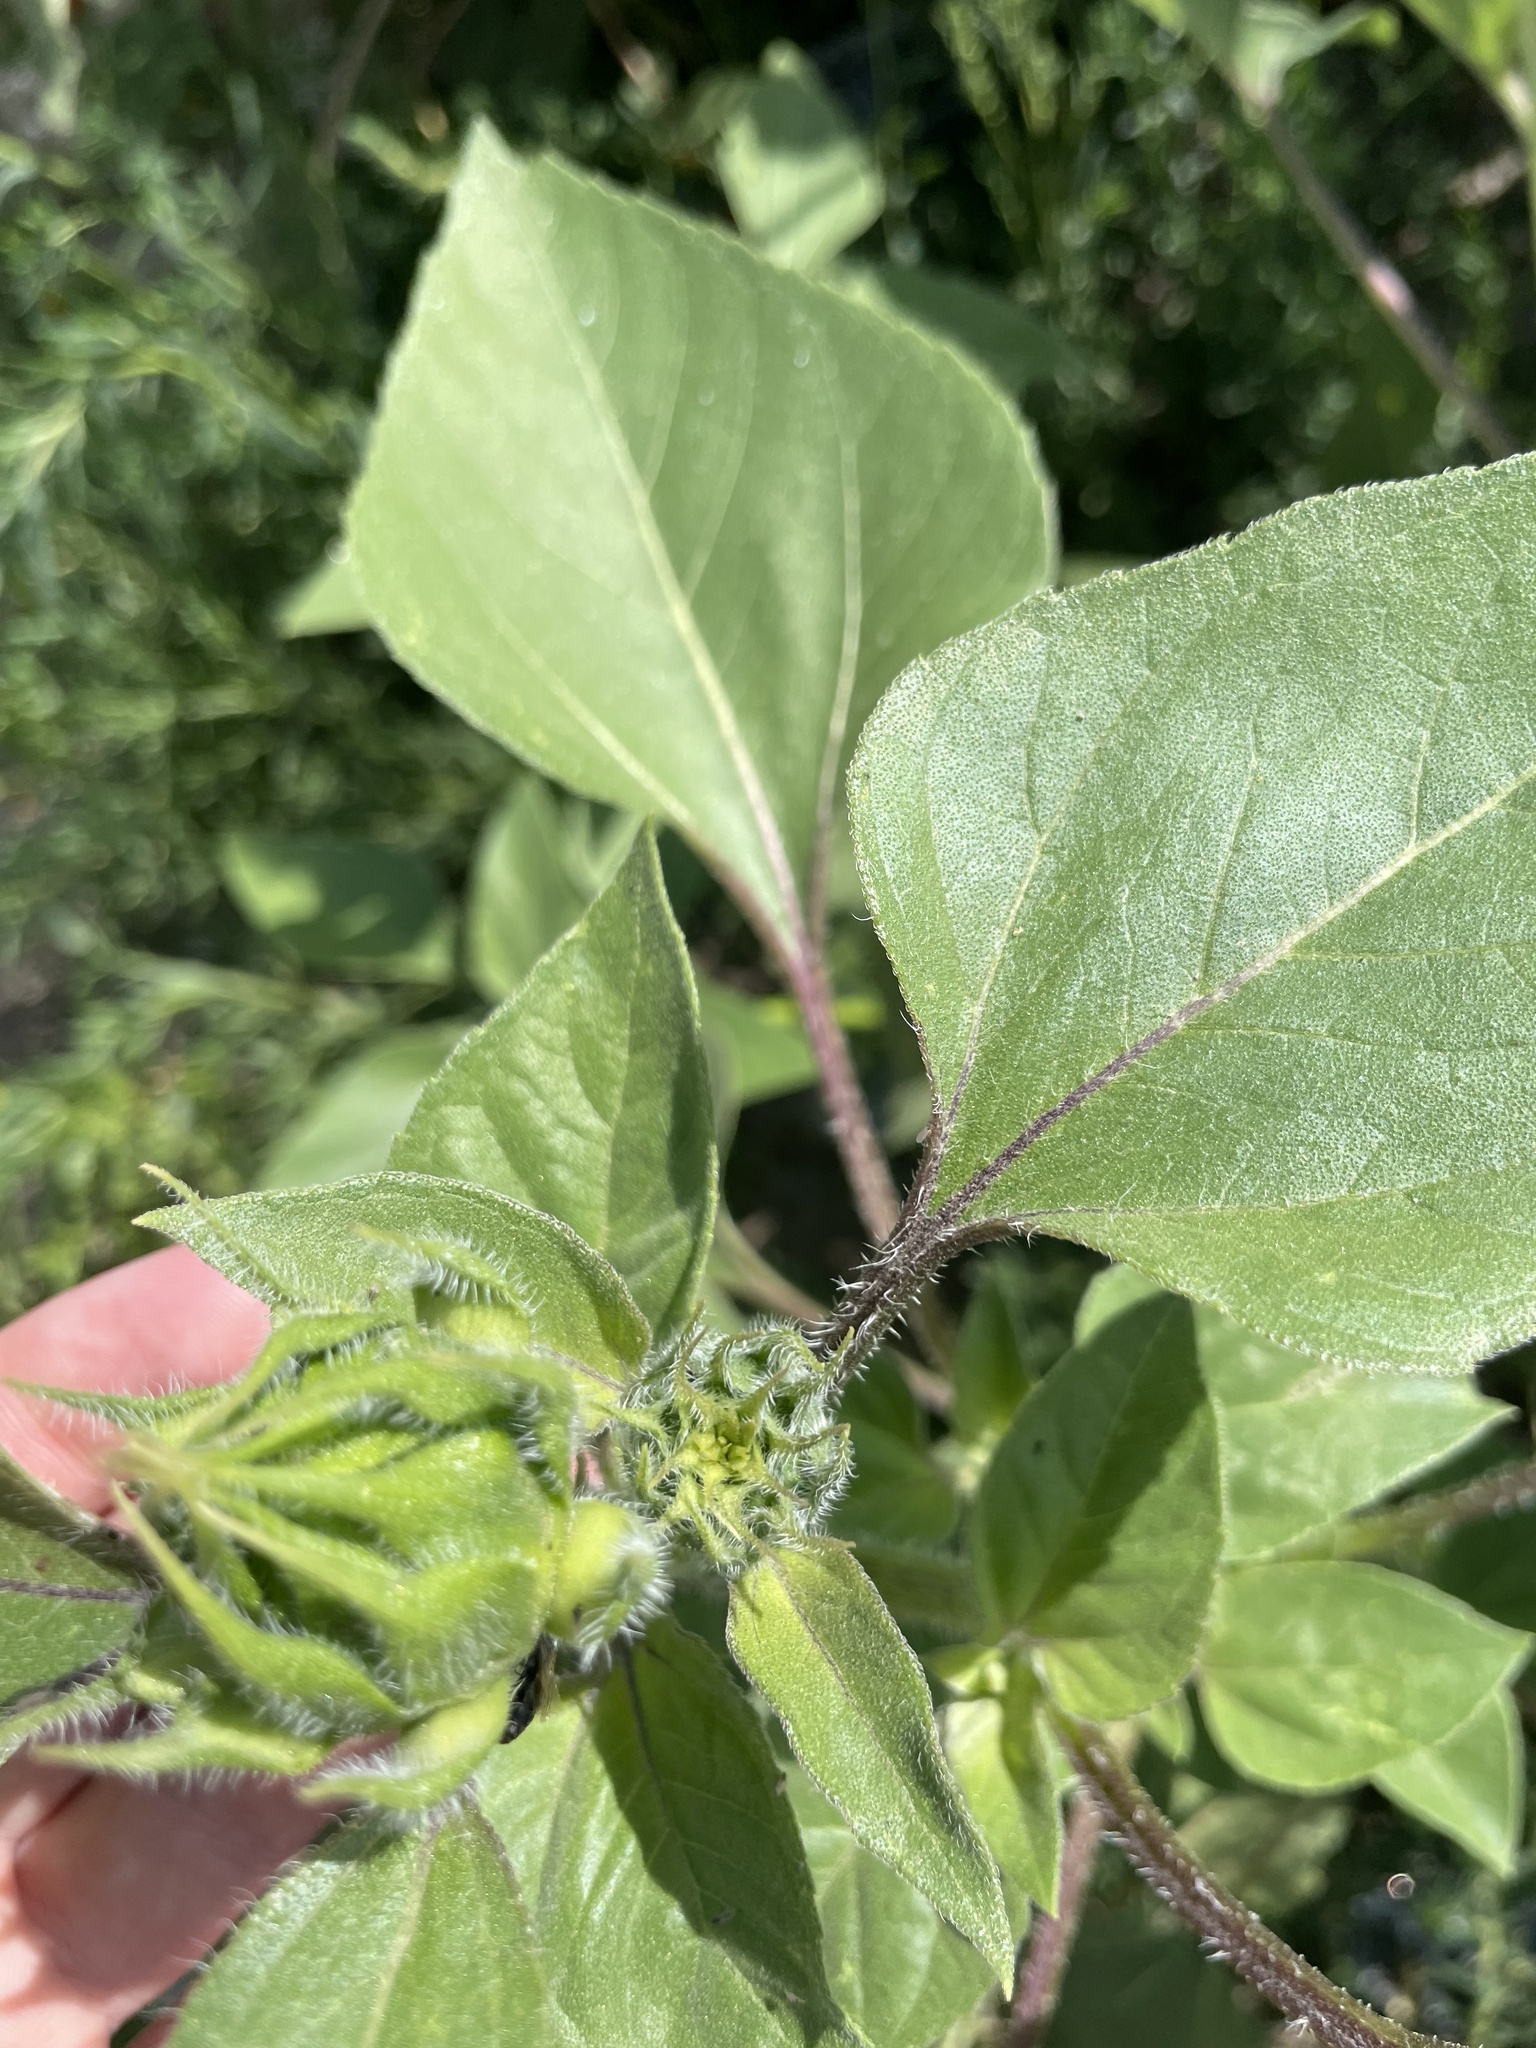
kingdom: Plantae
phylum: Tracheophyta
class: Magnoliopsida
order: Asterales
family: Asteraceae
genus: Helianthus
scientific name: Helianthus annuus
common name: Sunflower
